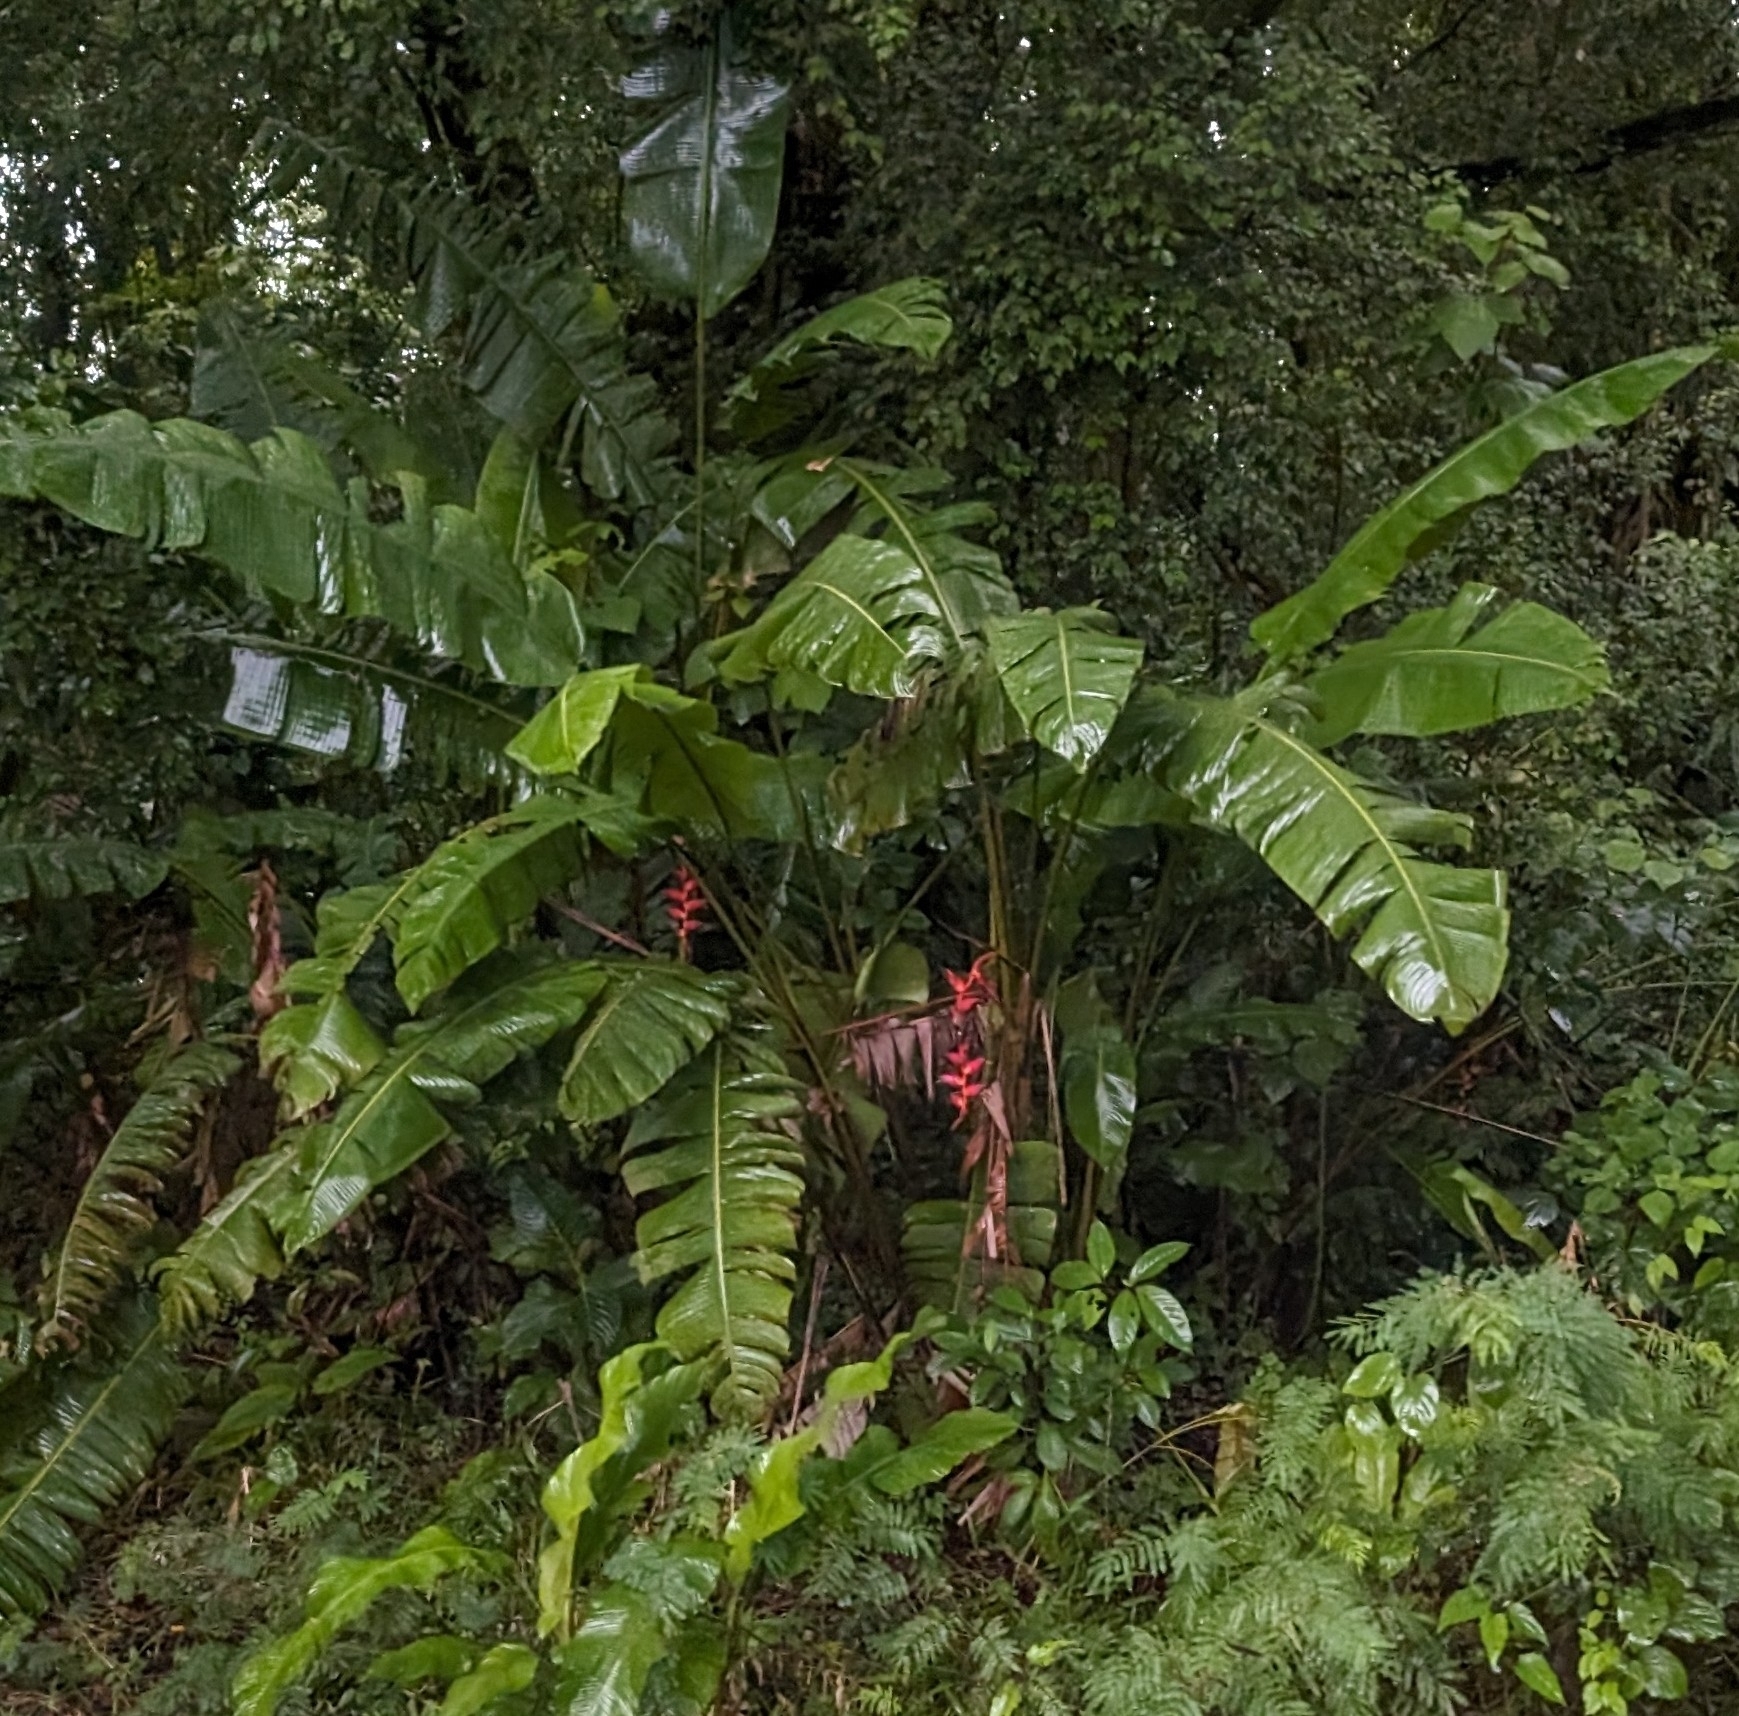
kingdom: Plantae
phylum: Tracheophyta
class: Liliopsida
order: Zingiberales
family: Heliconiaceae
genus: Heliconia
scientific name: Heliconia pogonantha
